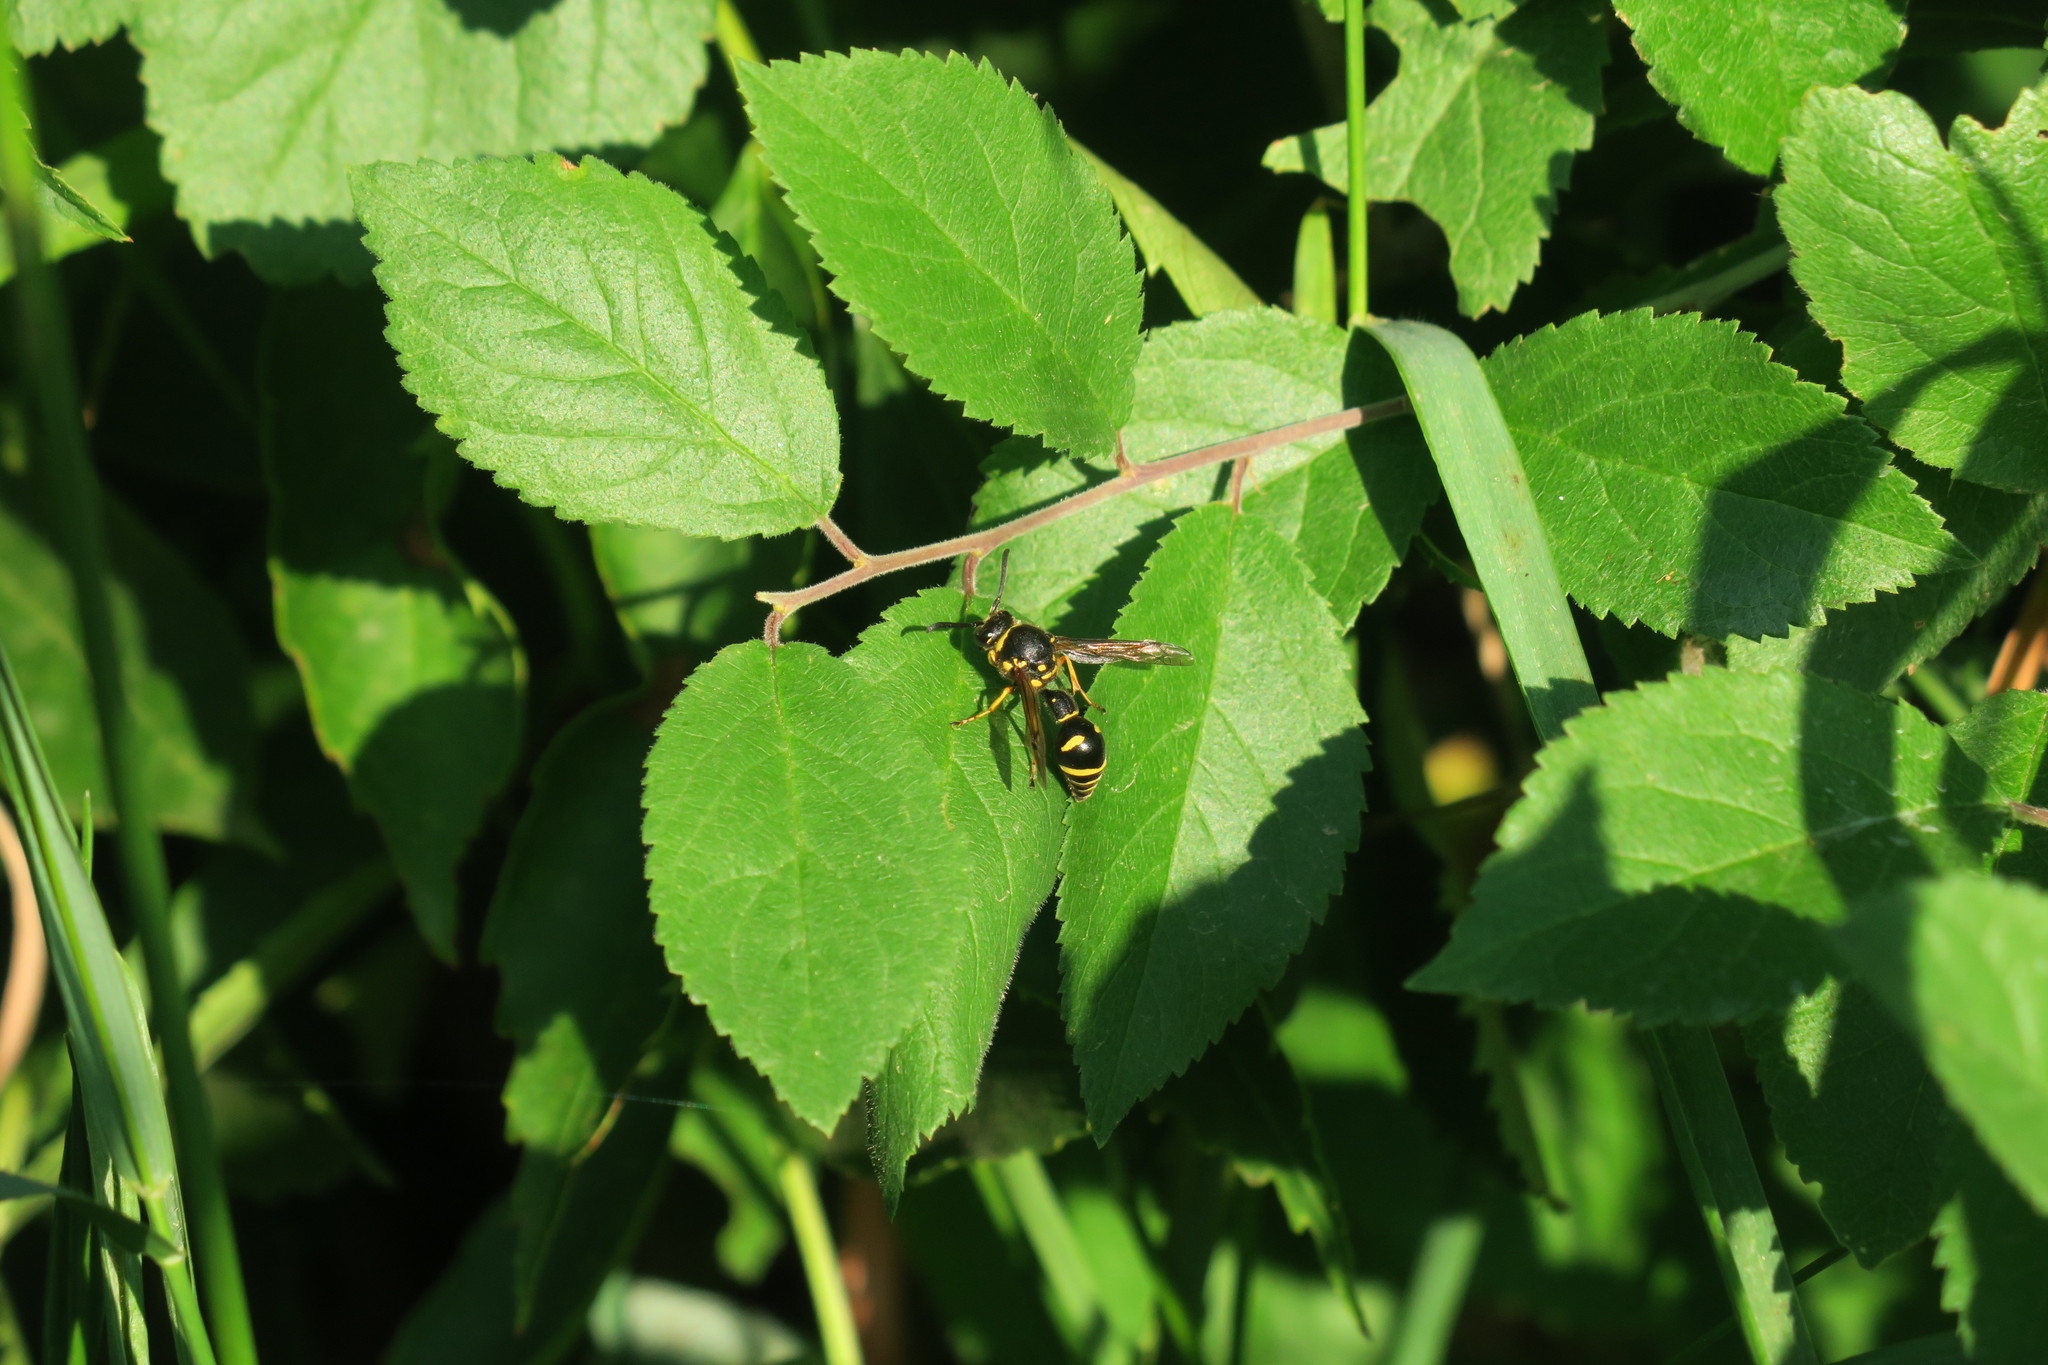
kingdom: Animalia
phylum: Arthropoda
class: Insecta
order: Hymenoptera
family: Vespidae
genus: Eumenes
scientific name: Eumenes
